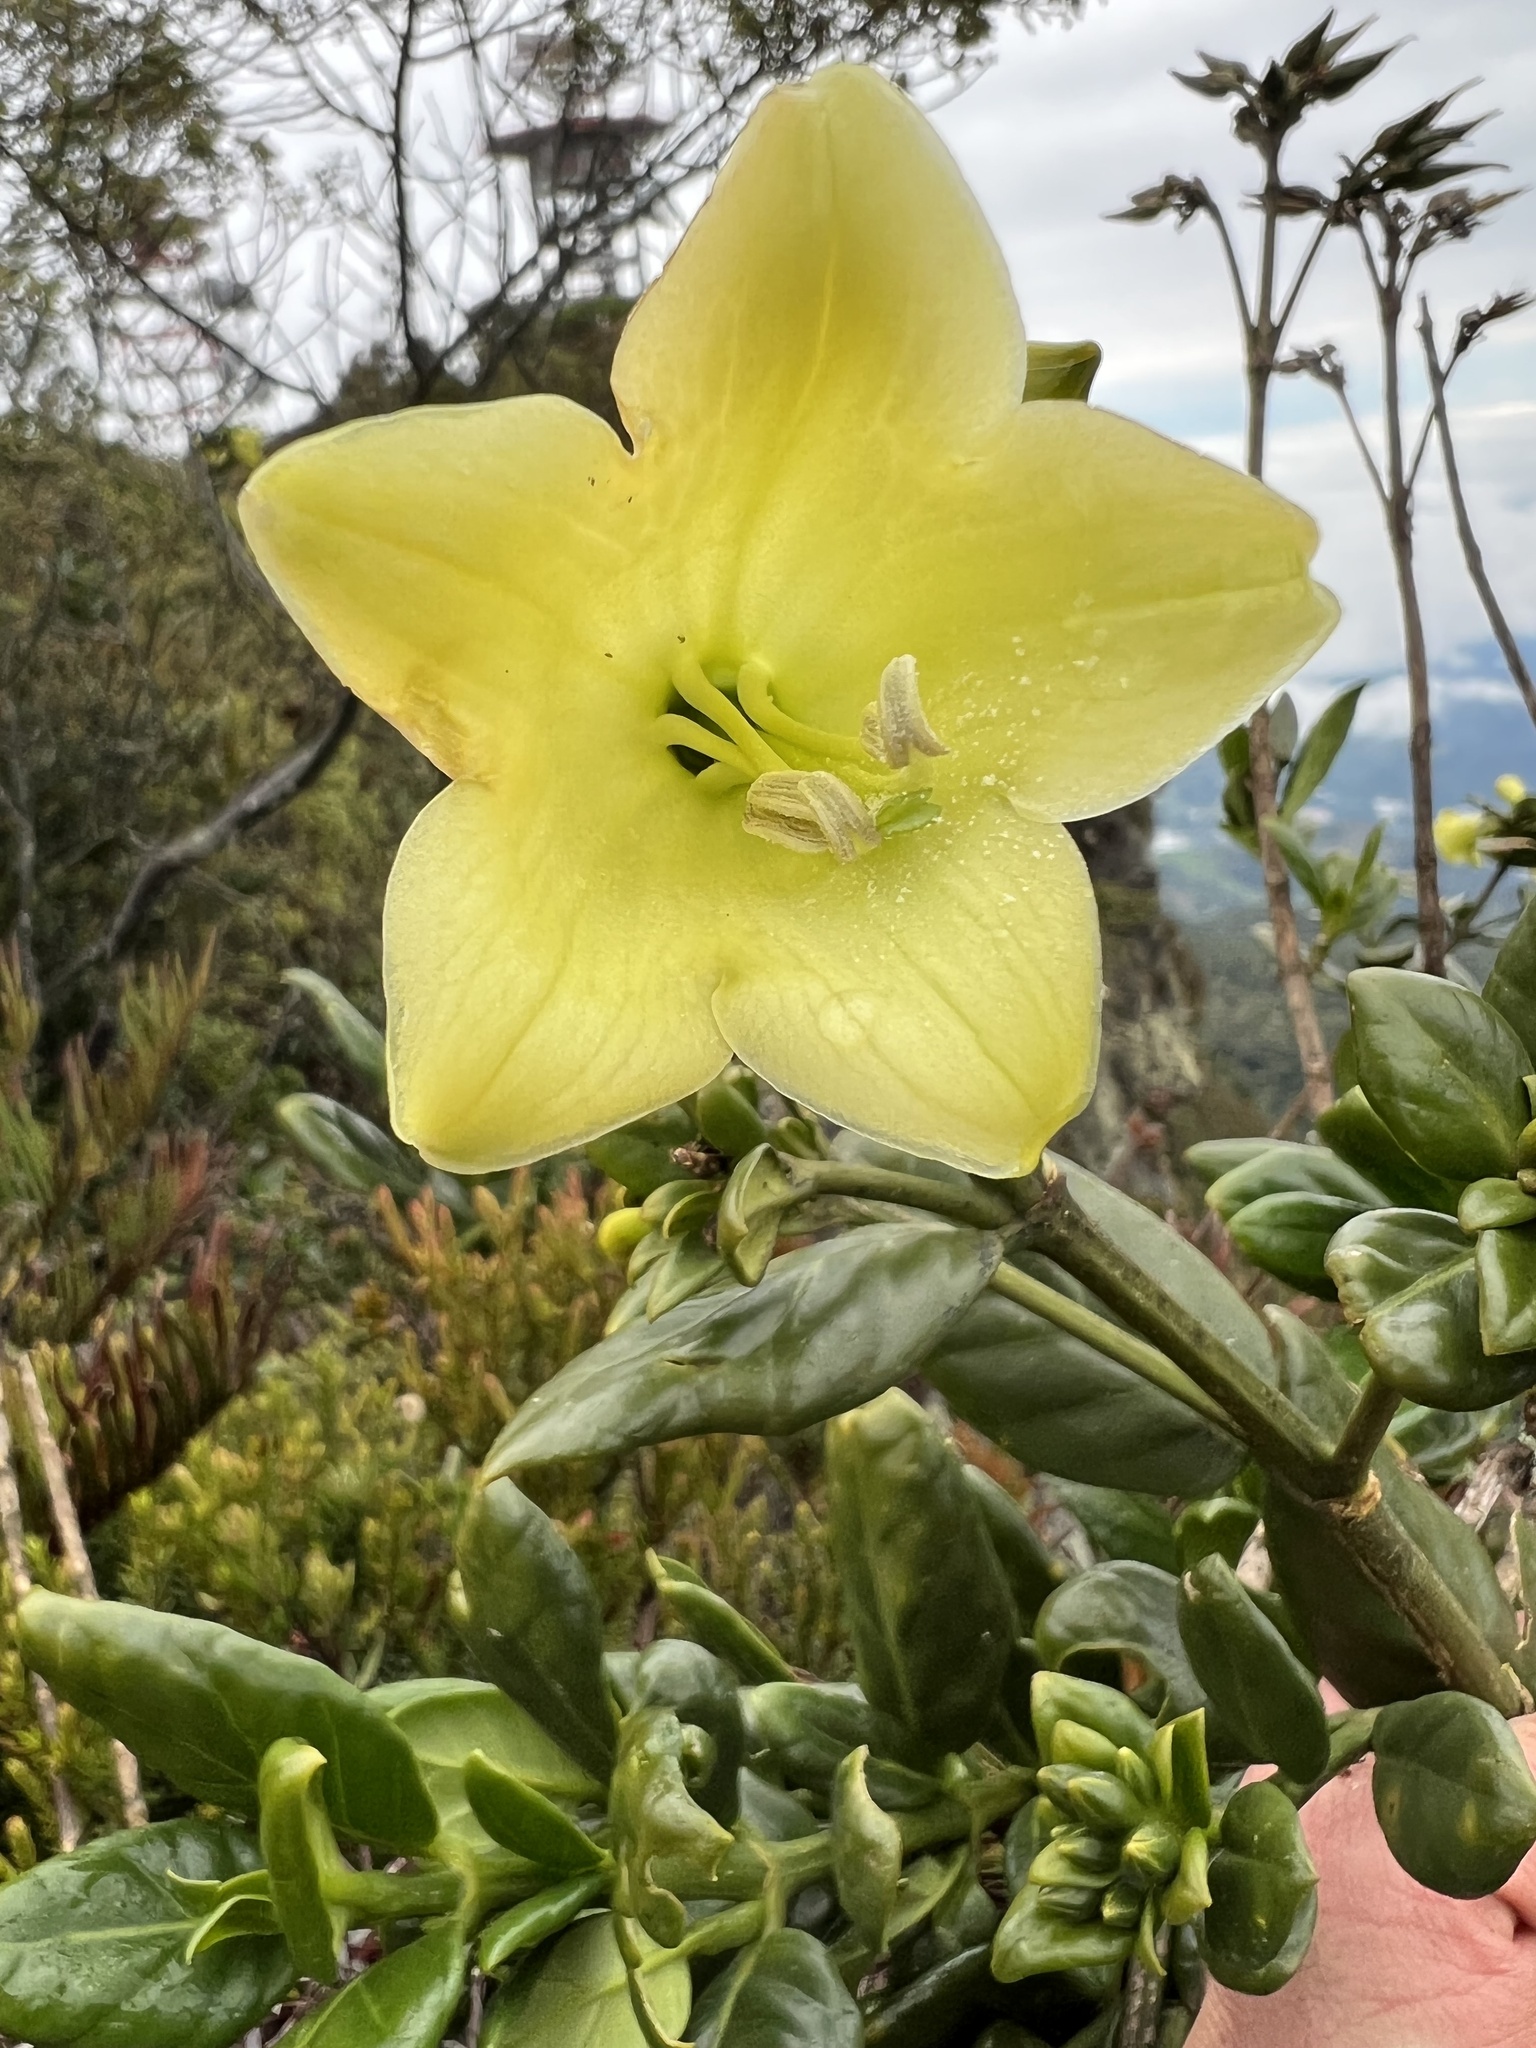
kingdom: Plantae
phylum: Tracheophyta
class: Magnoliopsida
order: Gentianales
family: Gentianaceae
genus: Macrocarpaea
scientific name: Macrocarpaea glabra
